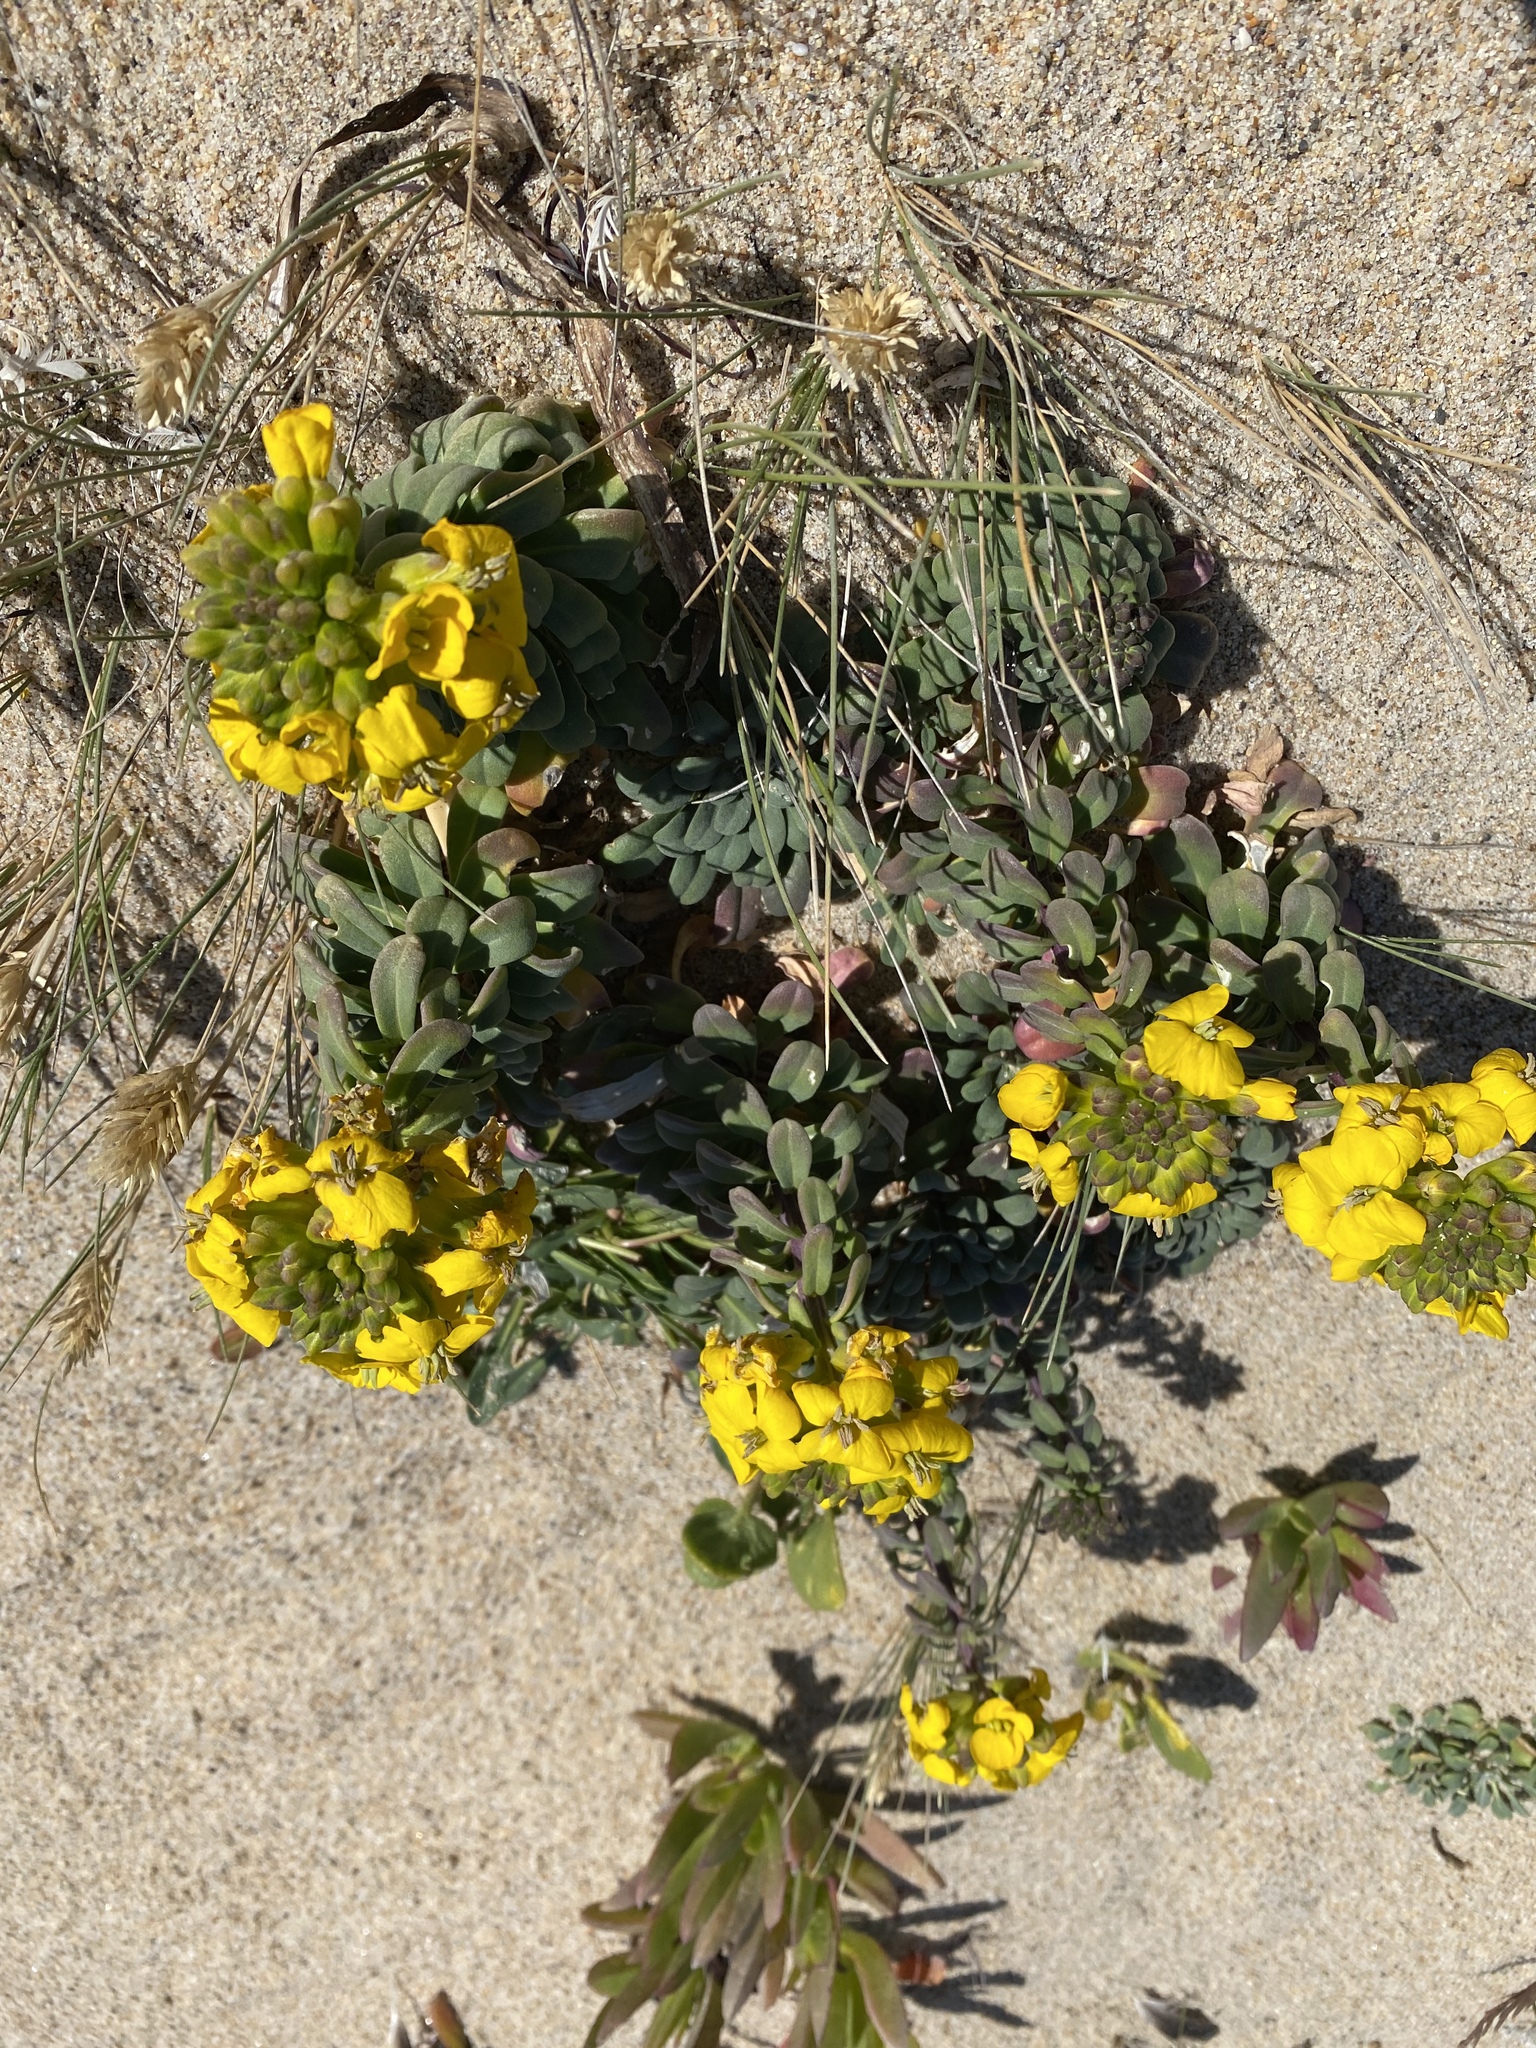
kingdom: Plantae
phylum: Tracheophyta
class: Magnoliopsida
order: Brassicales
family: Brassicaceae
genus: Erysimum
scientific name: Erysimum menziesii
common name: Menzies's wallflower
